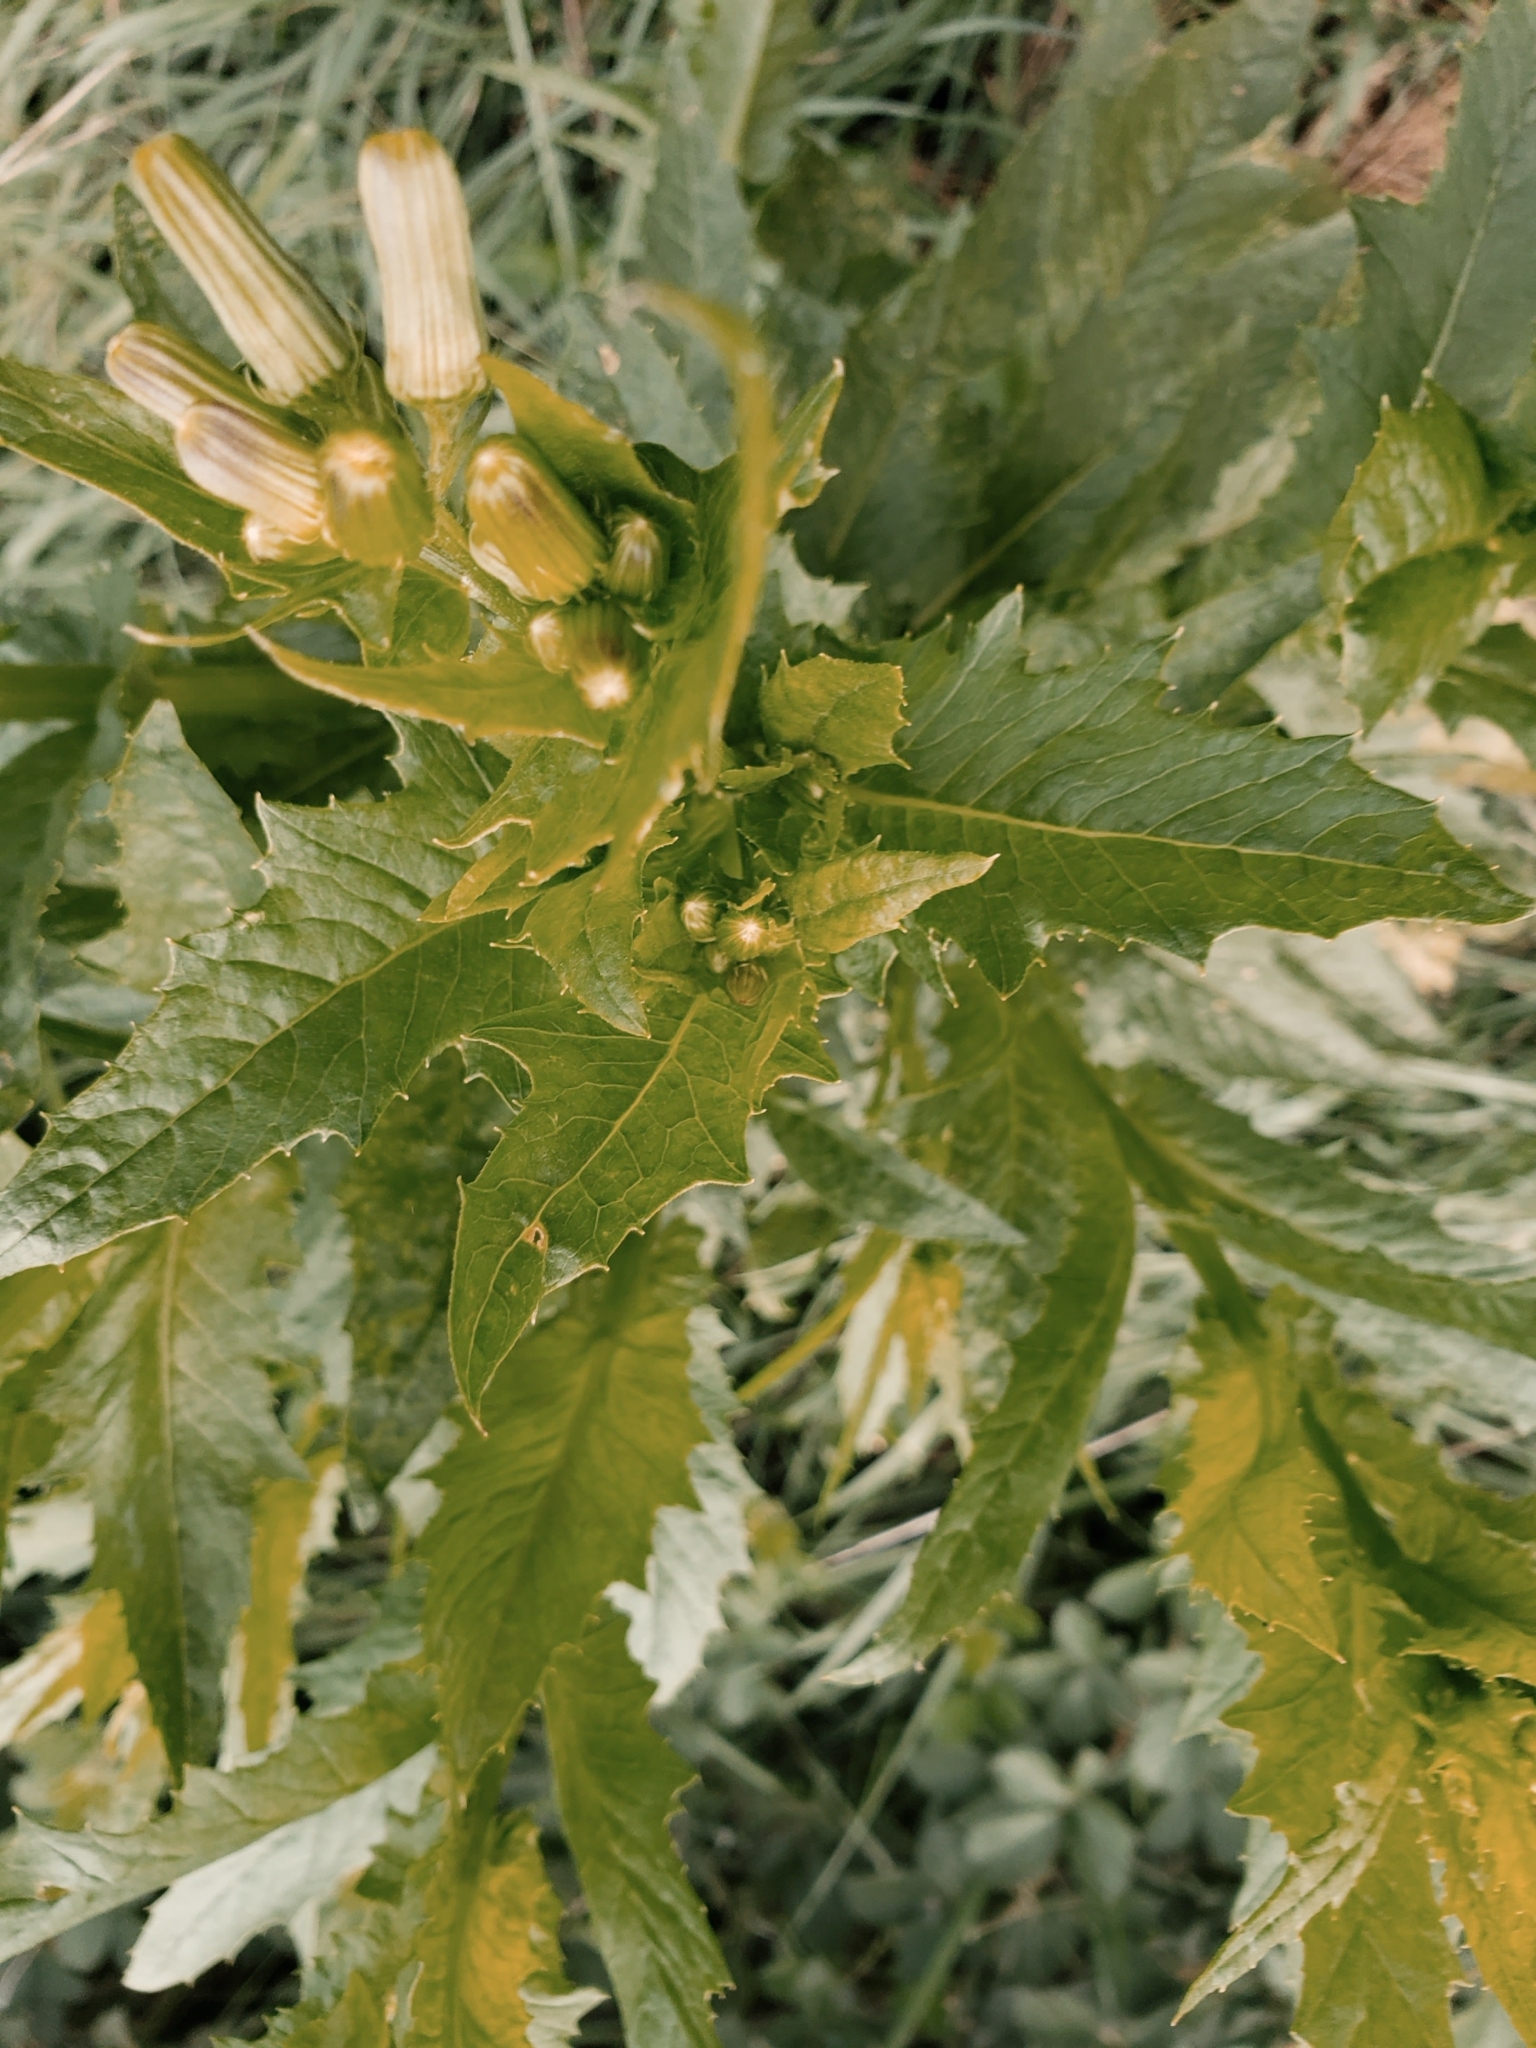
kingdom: Plantae
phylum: Tracheophyta
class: Magnoliopsida
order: Asterales
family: Asteraceae
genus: Erechtites
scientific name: Erechtites hieraciifolius
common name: American burnweed
